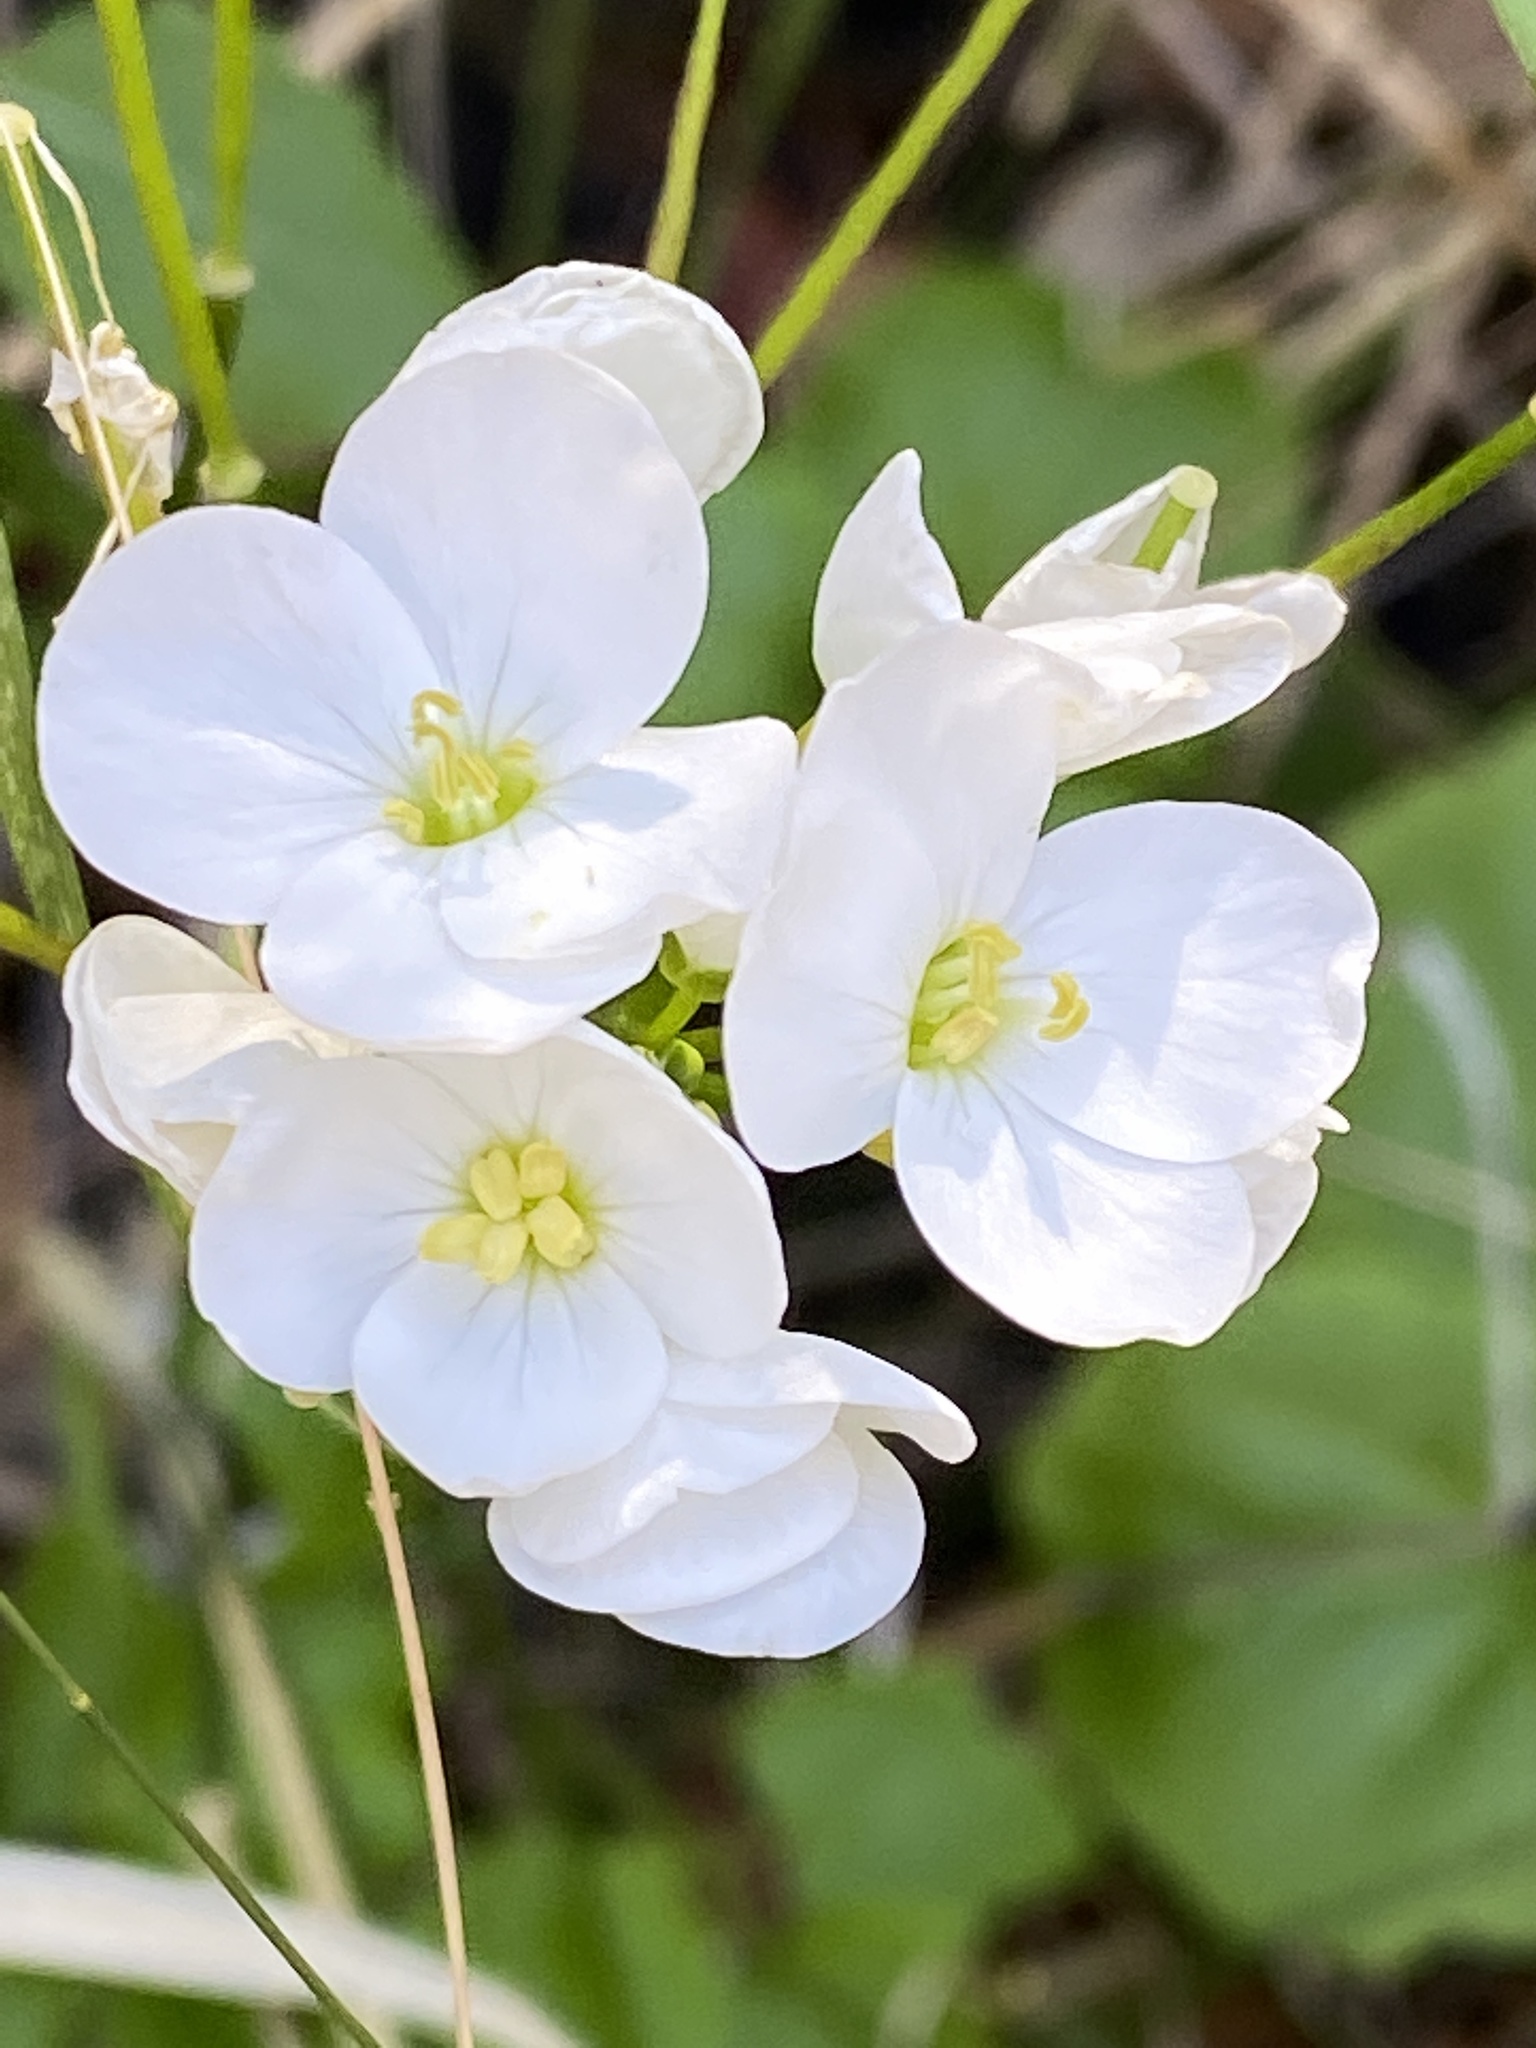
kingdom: Plantae
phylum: Tracheophyta
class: Magnoliopsida
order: Brassicales
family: Brassicaceae
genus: Cardamine
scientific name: Cardamine californica
